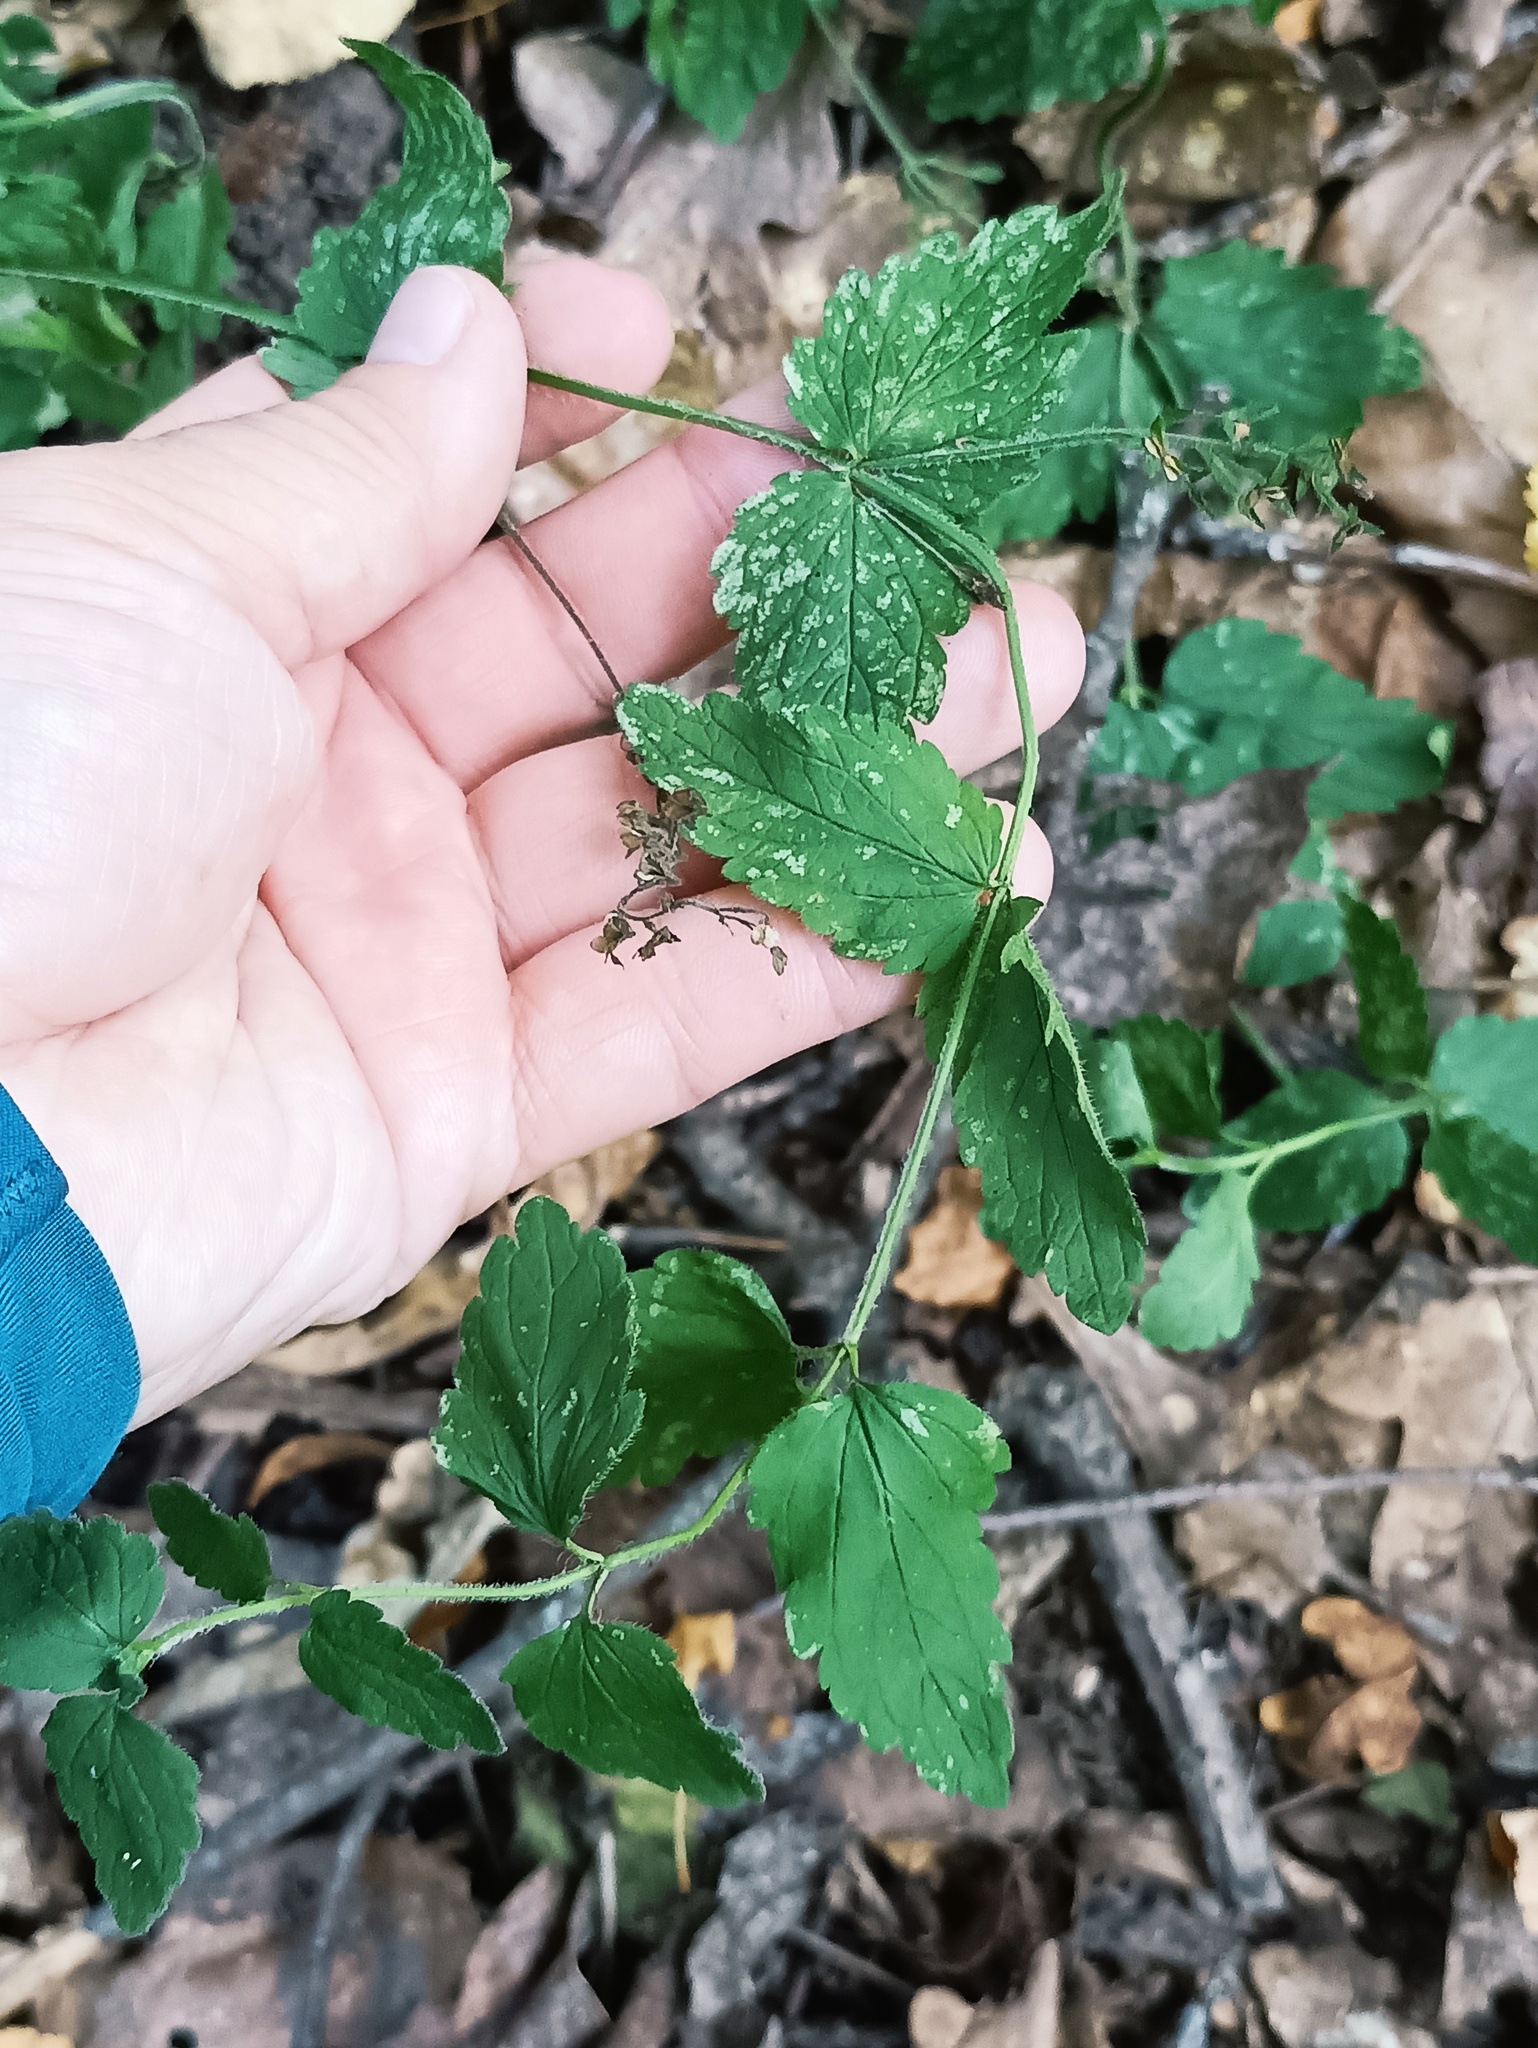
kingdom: Plantae
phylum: Tracheophyta
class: Magnoliopsida
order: Lamiales
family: Plantaginaceae
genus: Veronica
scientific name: Veronica chamaedrys
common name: Germander speedwell
